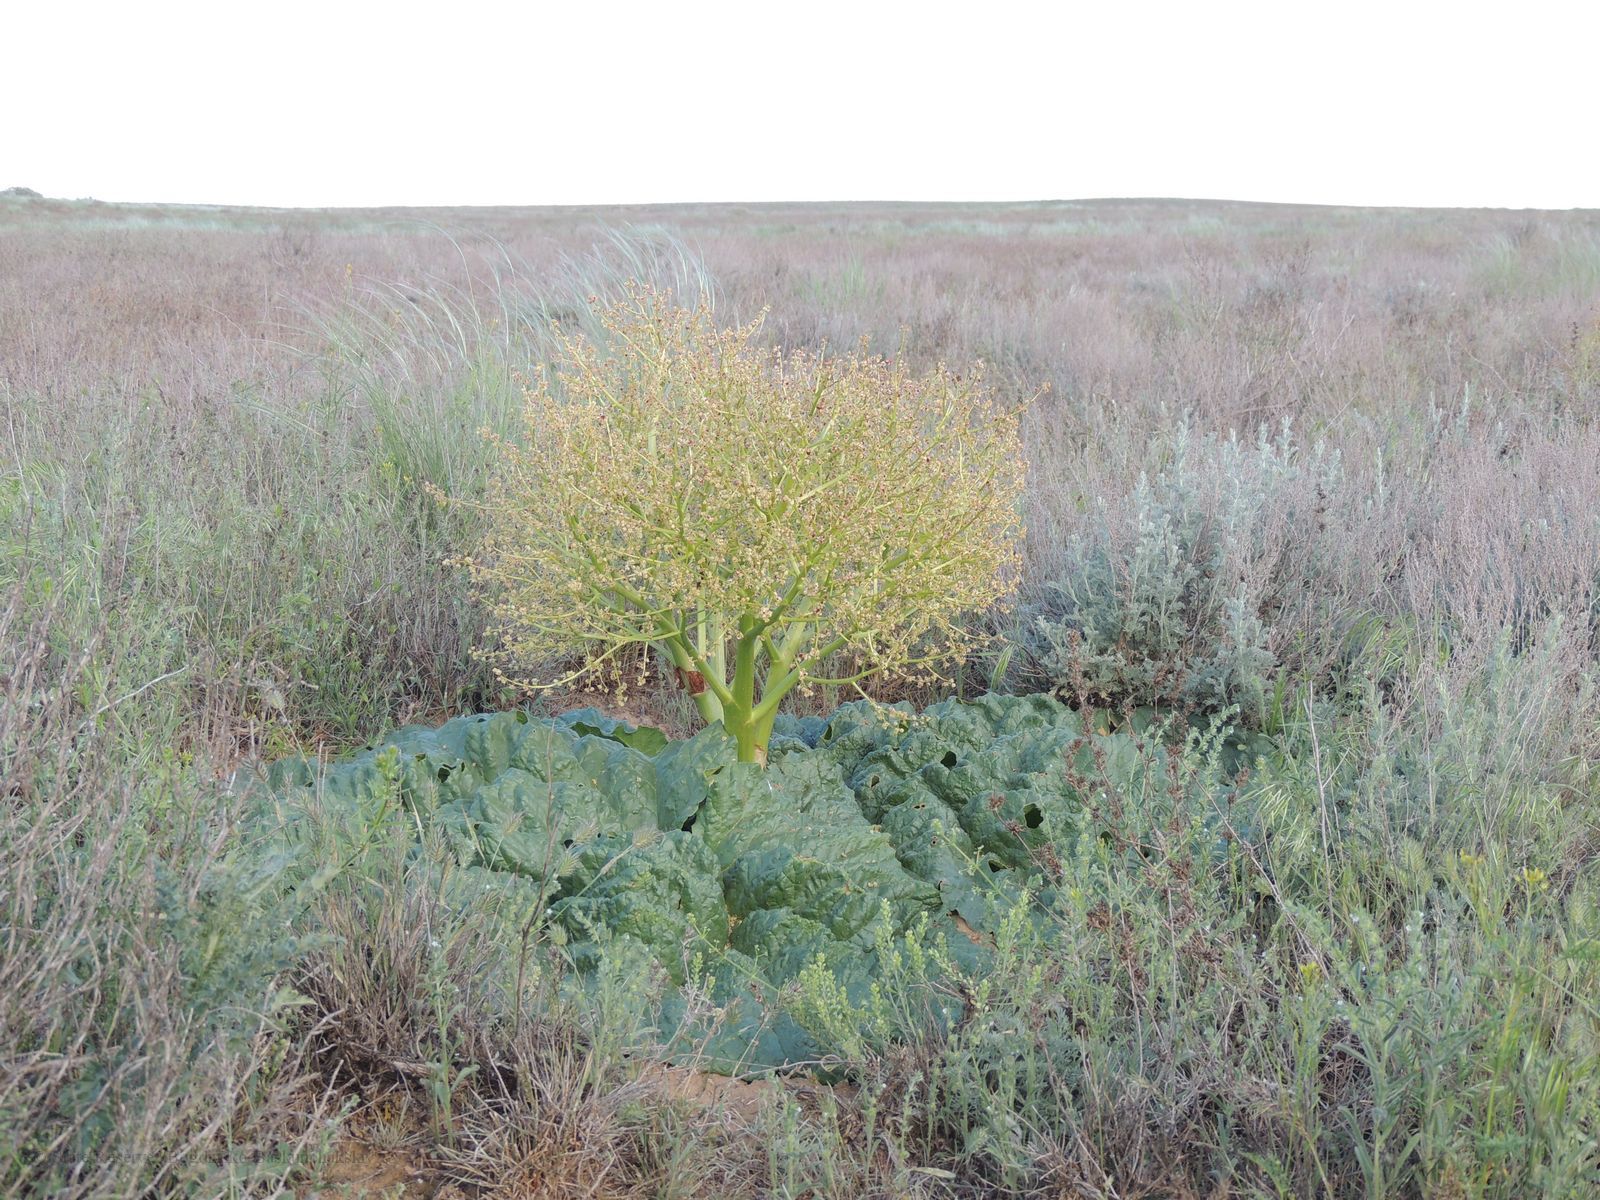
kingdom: Plantae
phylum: Tracheophyta
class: Magnoliopsida
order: Caryophyllales
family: Polygonaceae
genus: Rheum
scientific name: Rheum tataricum
